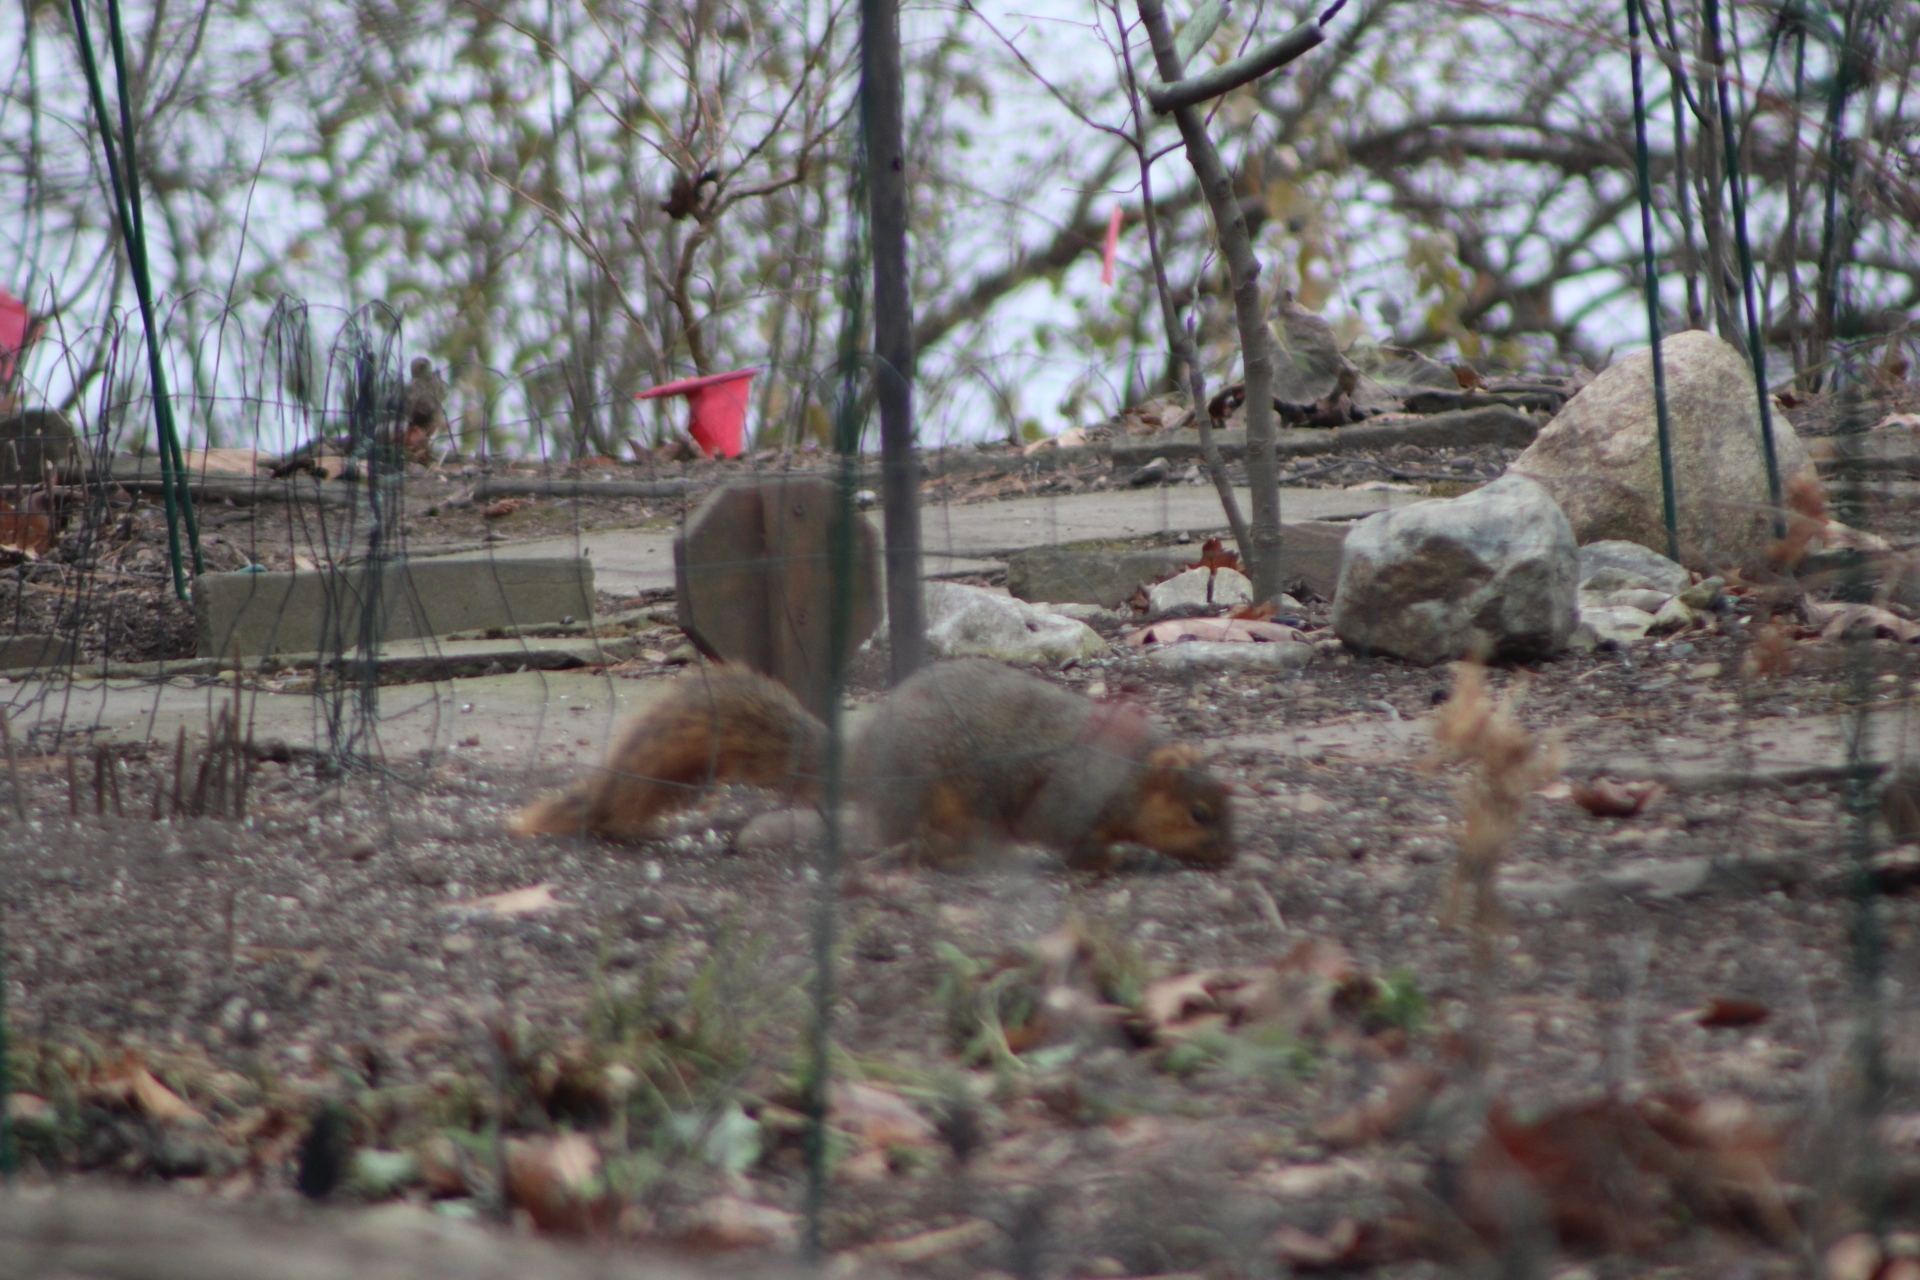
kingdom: Animalia
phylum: Chordata
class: Mammalia
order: Rodentia
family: Sciuridae
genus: Sciurus
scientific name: Sciurus niger
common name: Fox squirrel
